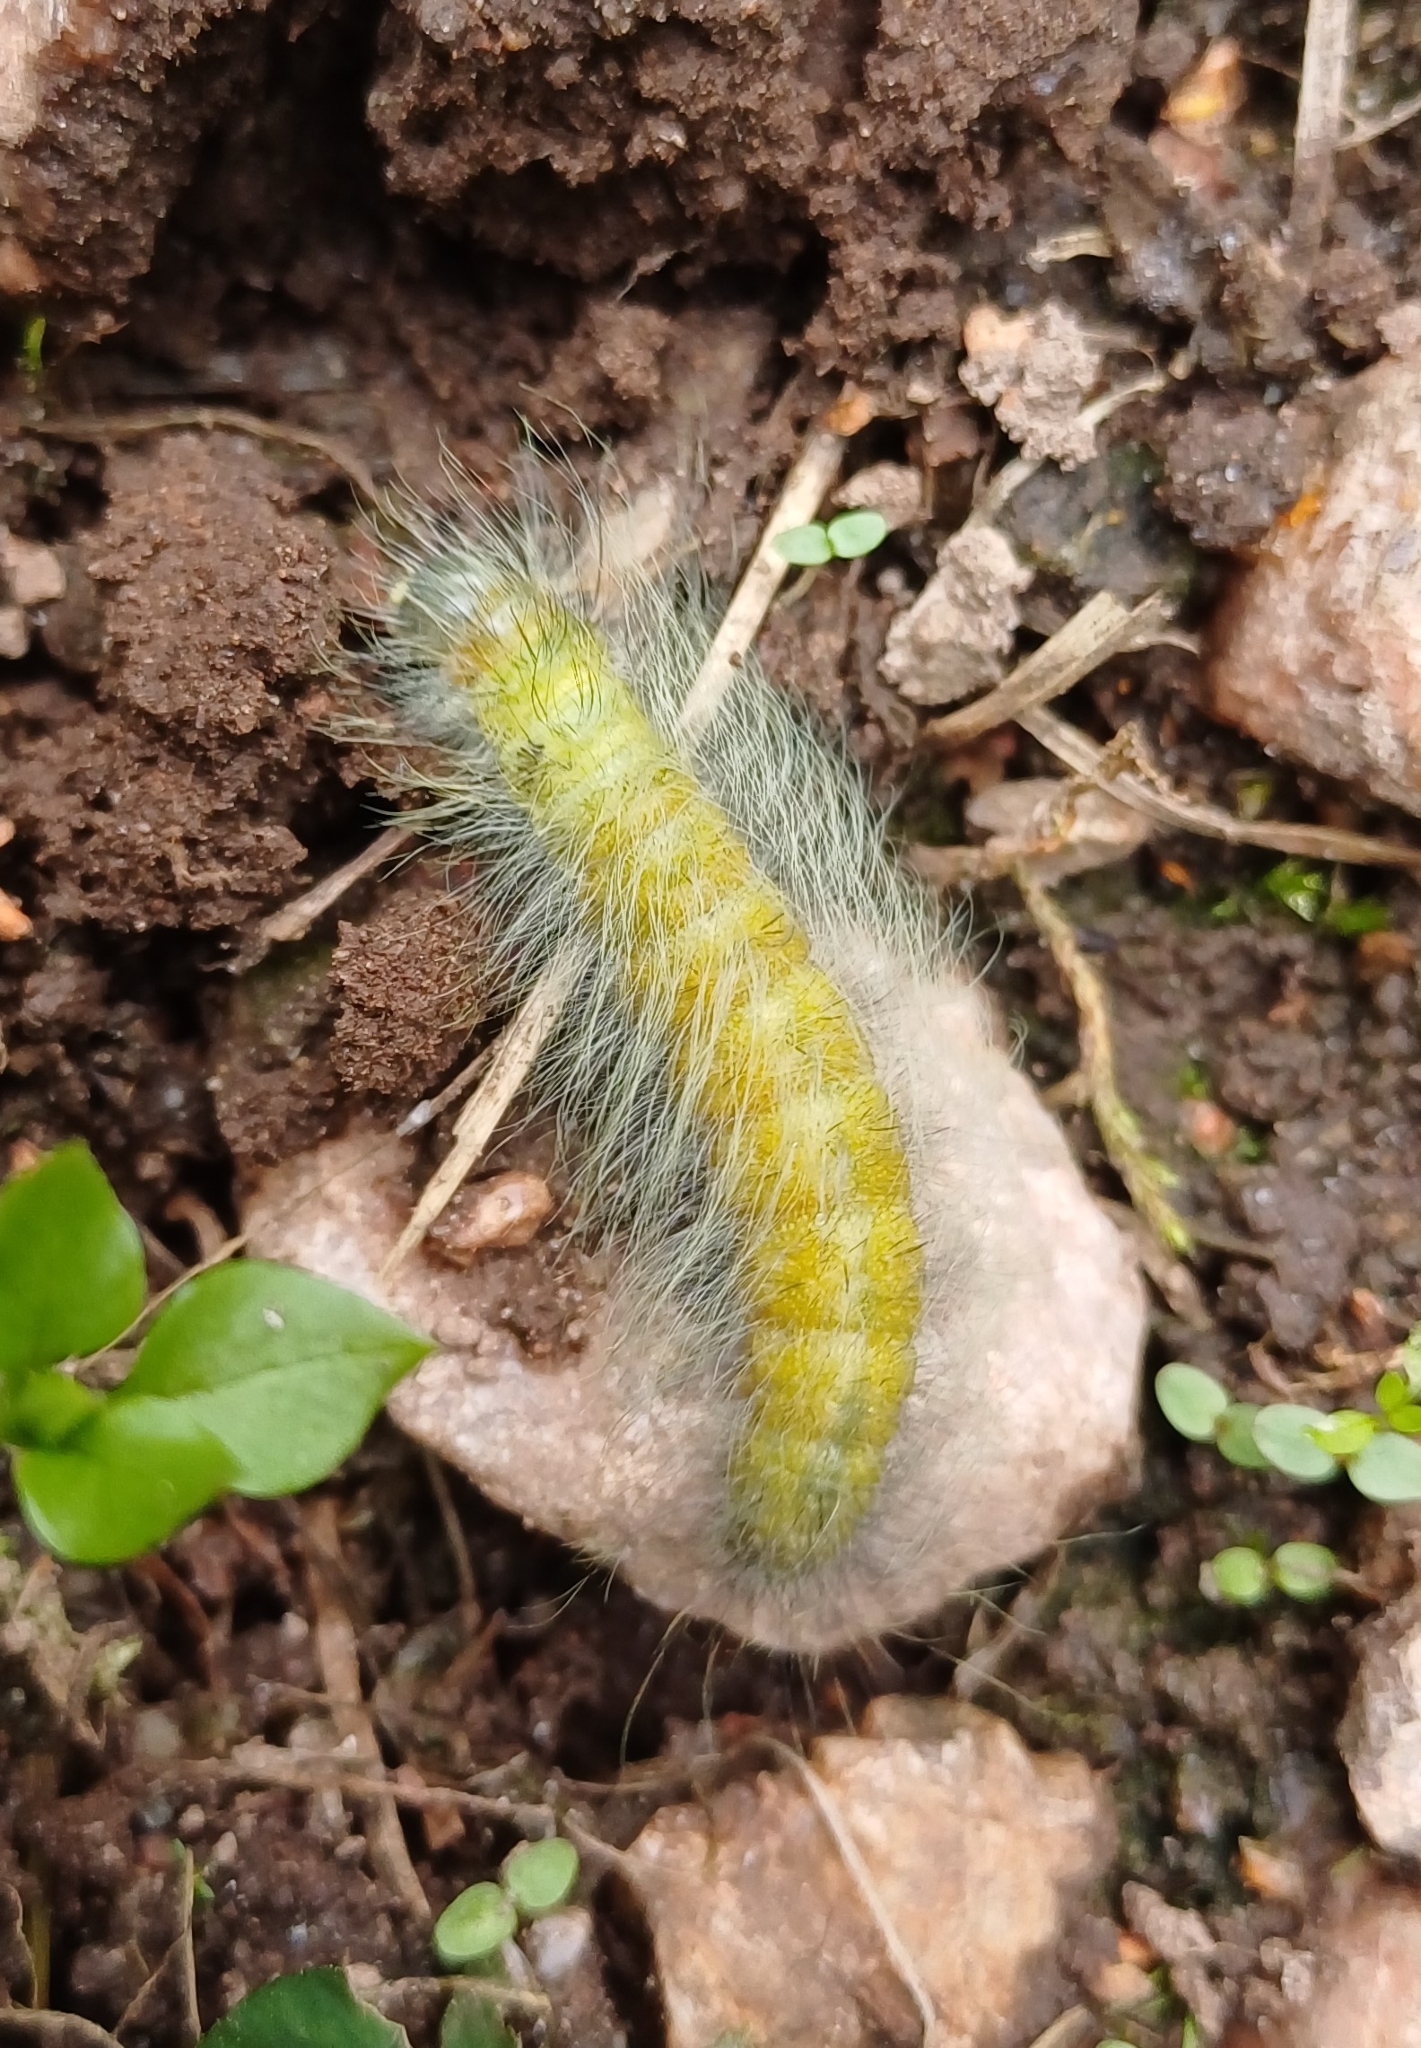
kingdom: Animalia
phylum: Arthropoda
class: Insecta
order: Lepidoptera
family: Noctuidae
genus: Acronicta
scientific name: Acronicta leporina
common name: Miller
